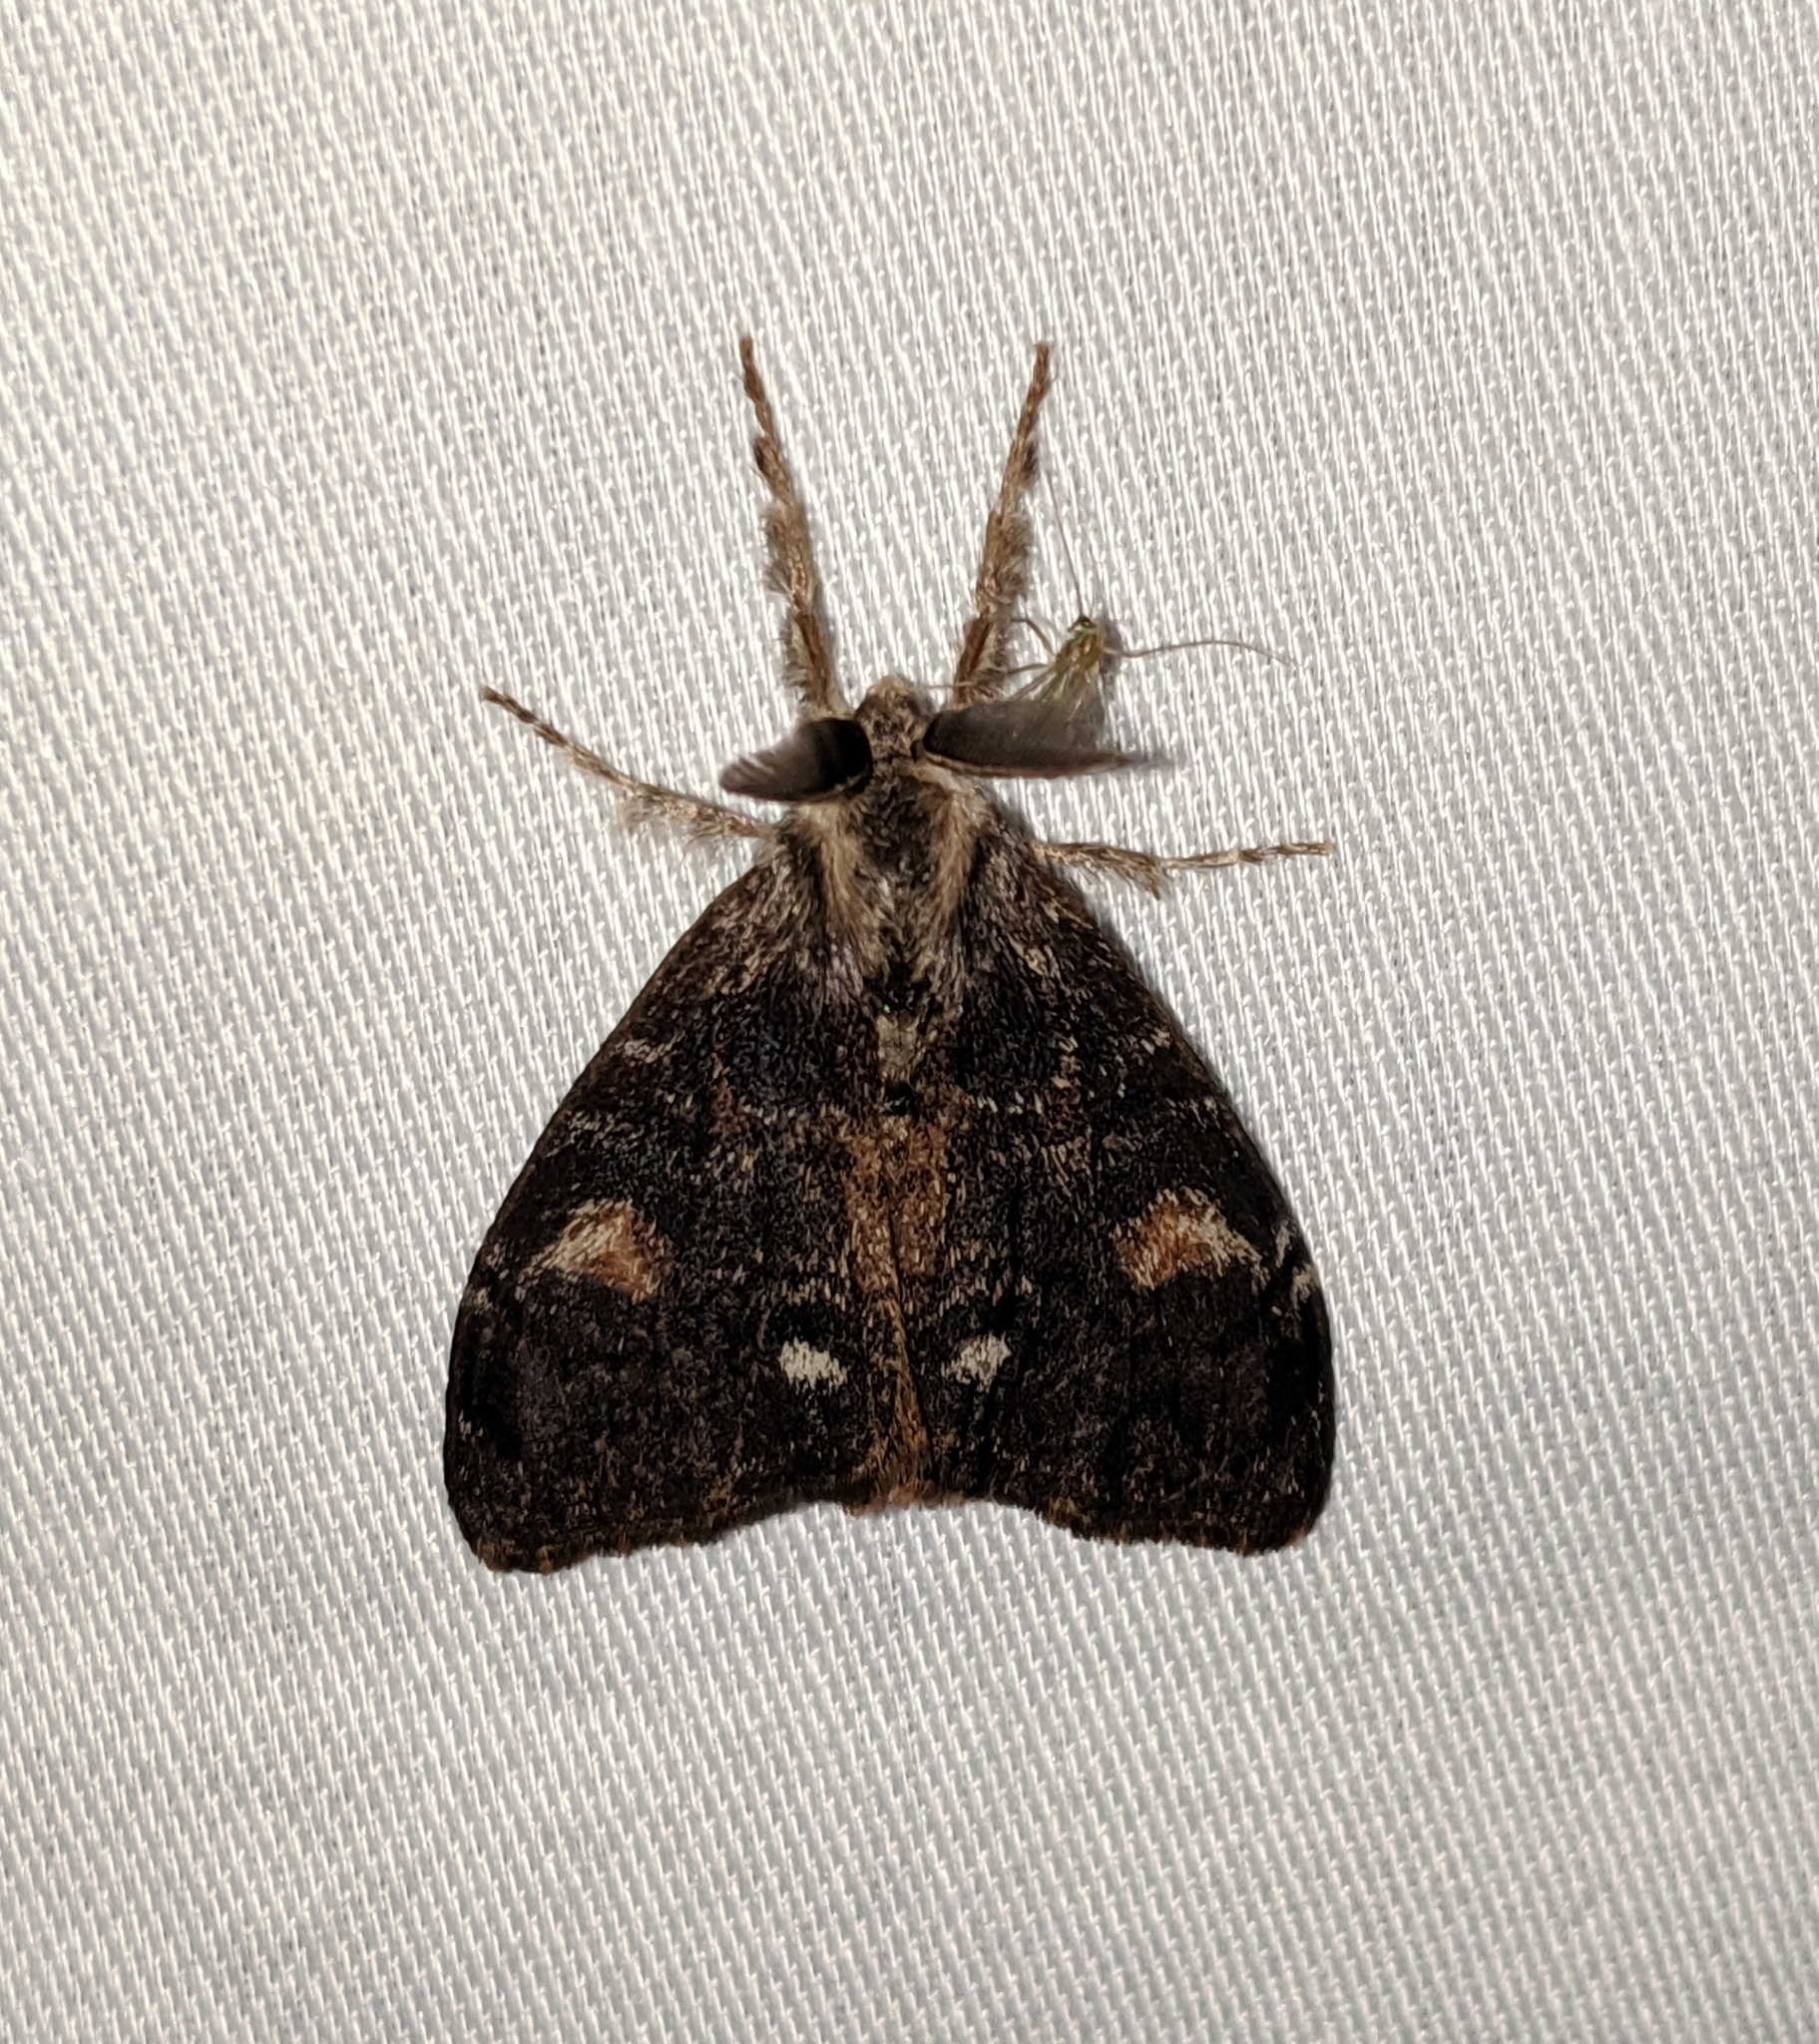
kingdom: Animalia
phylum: Arthropoda
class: Insecta
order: Lepidoptera
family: Erebidae
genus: Orgyia
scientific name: Orgyia pseudotsugata
